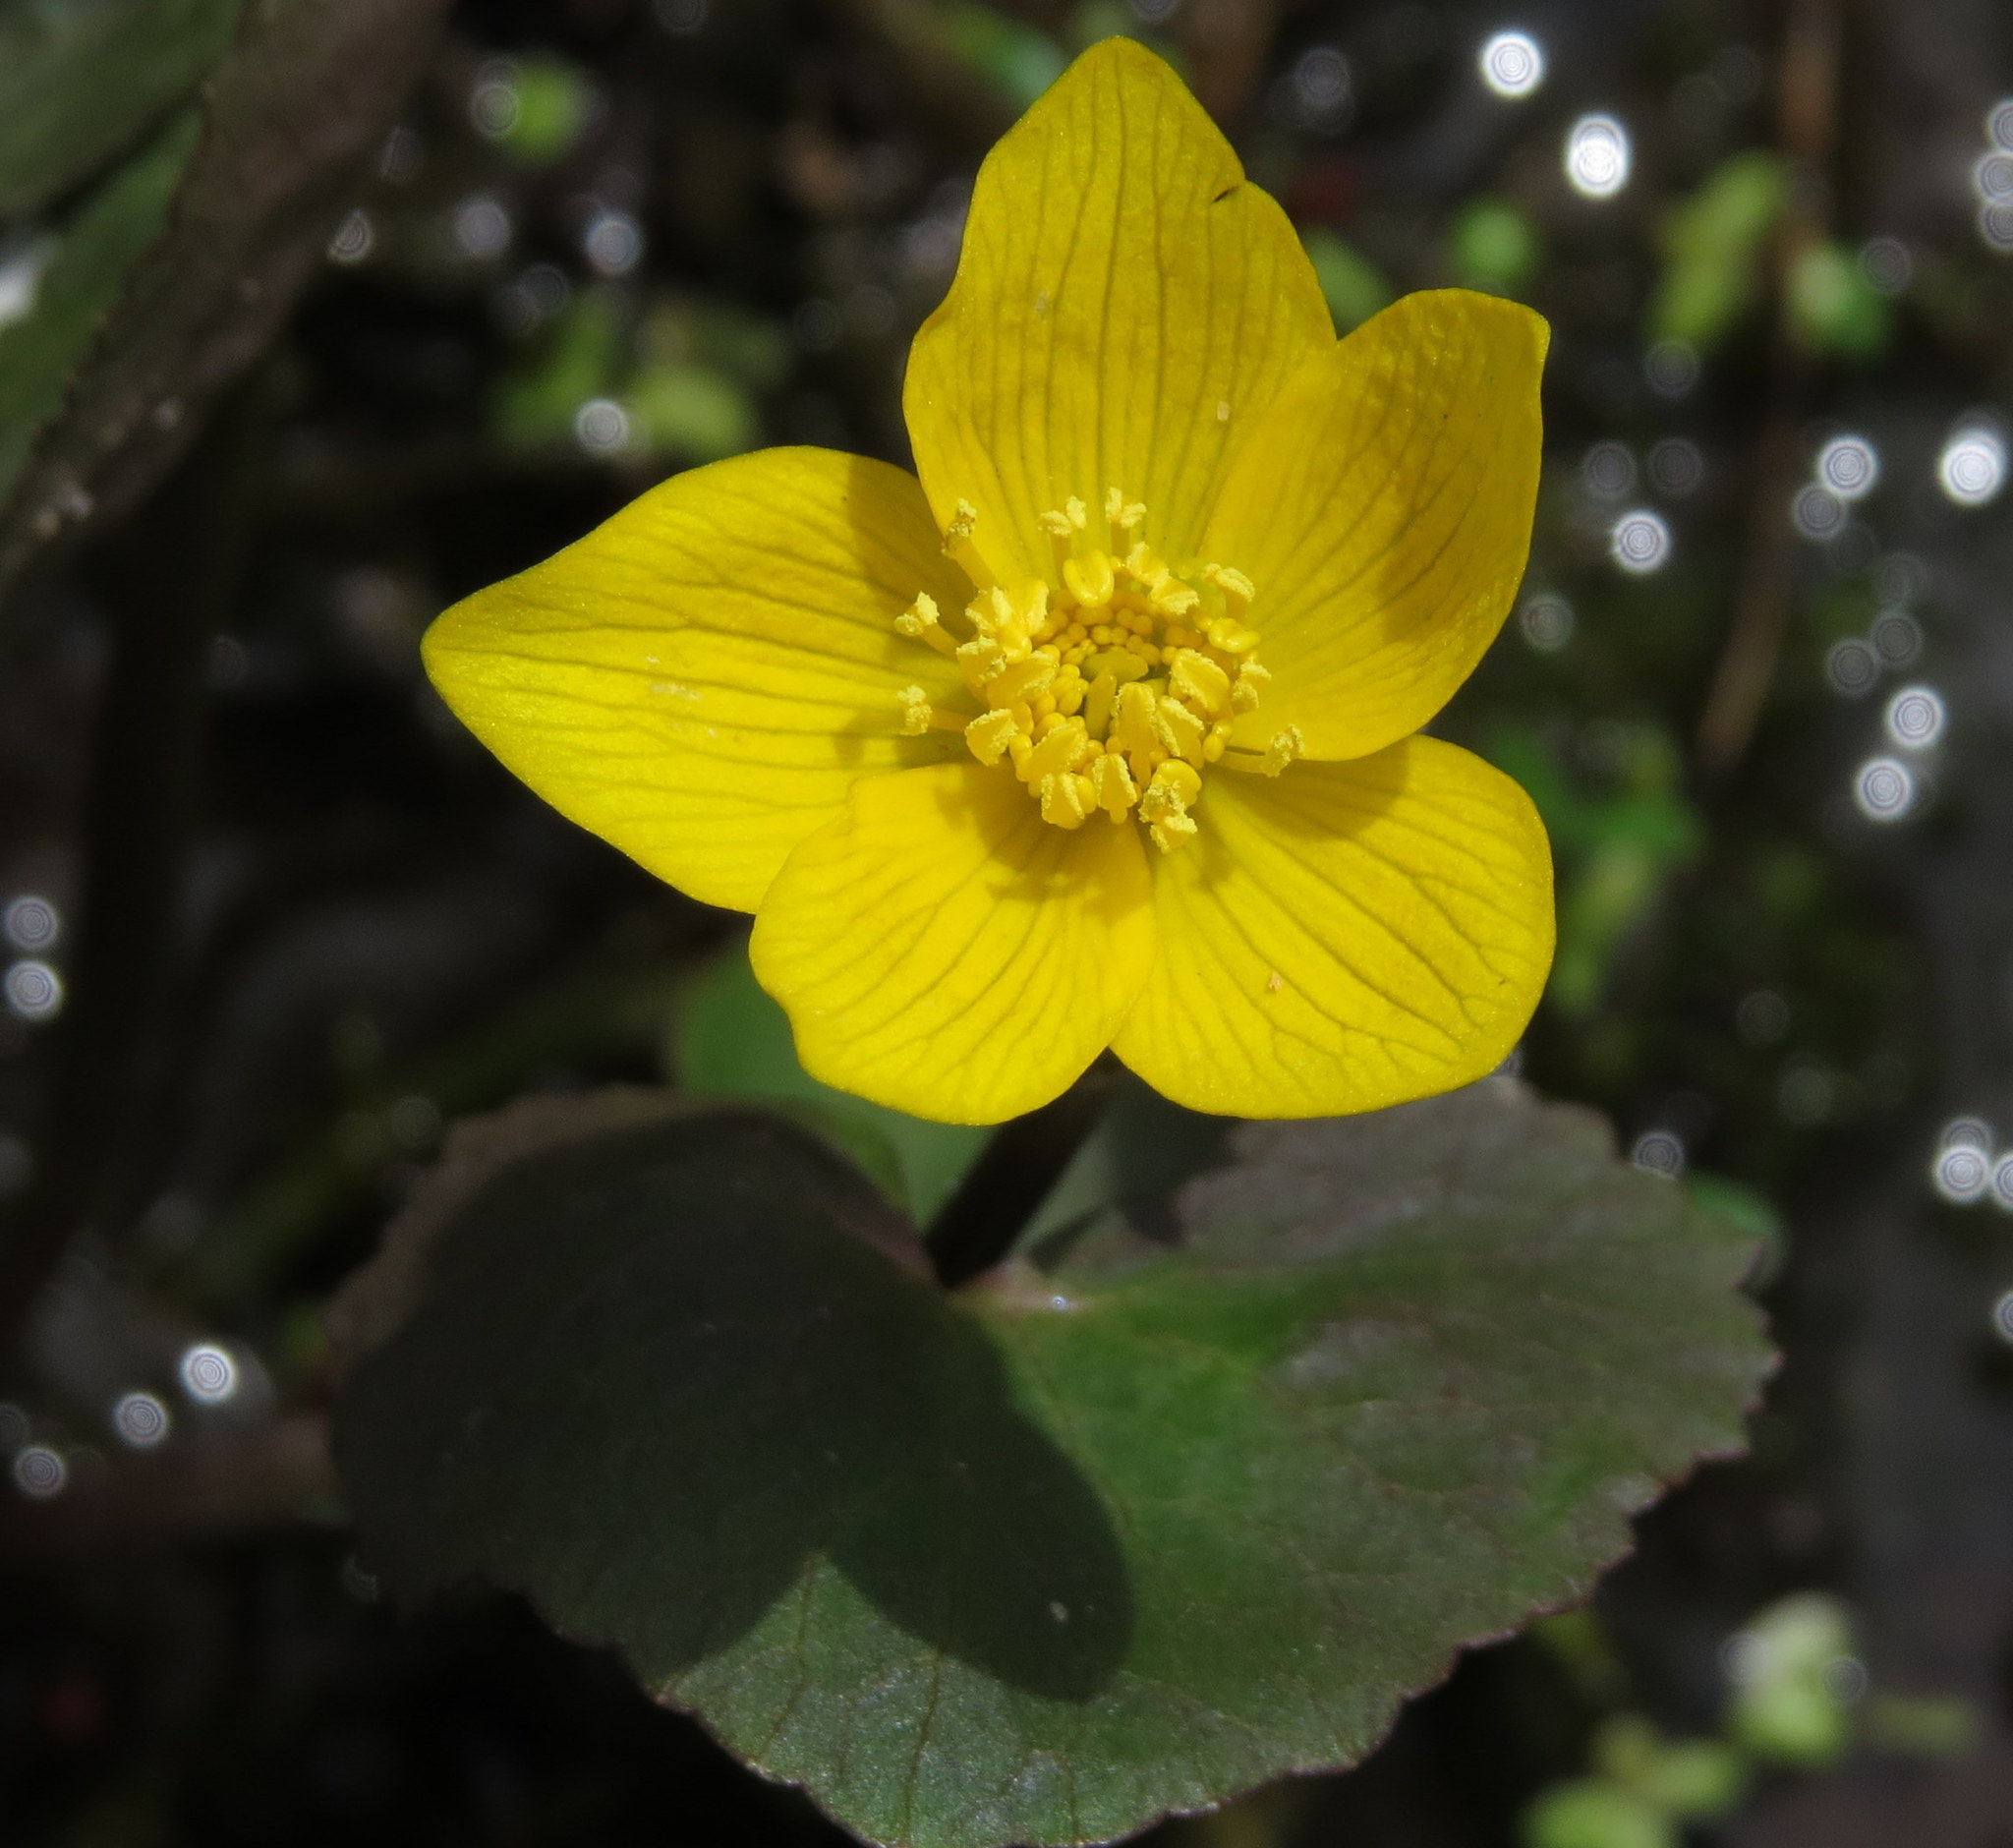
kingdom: Plantae
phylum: Tracheophyta
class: Magnoliopsida
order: Ranunculales
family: Ranunculaceae
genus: Caltha
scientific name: Caltha palustris
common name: Marsh marigold
